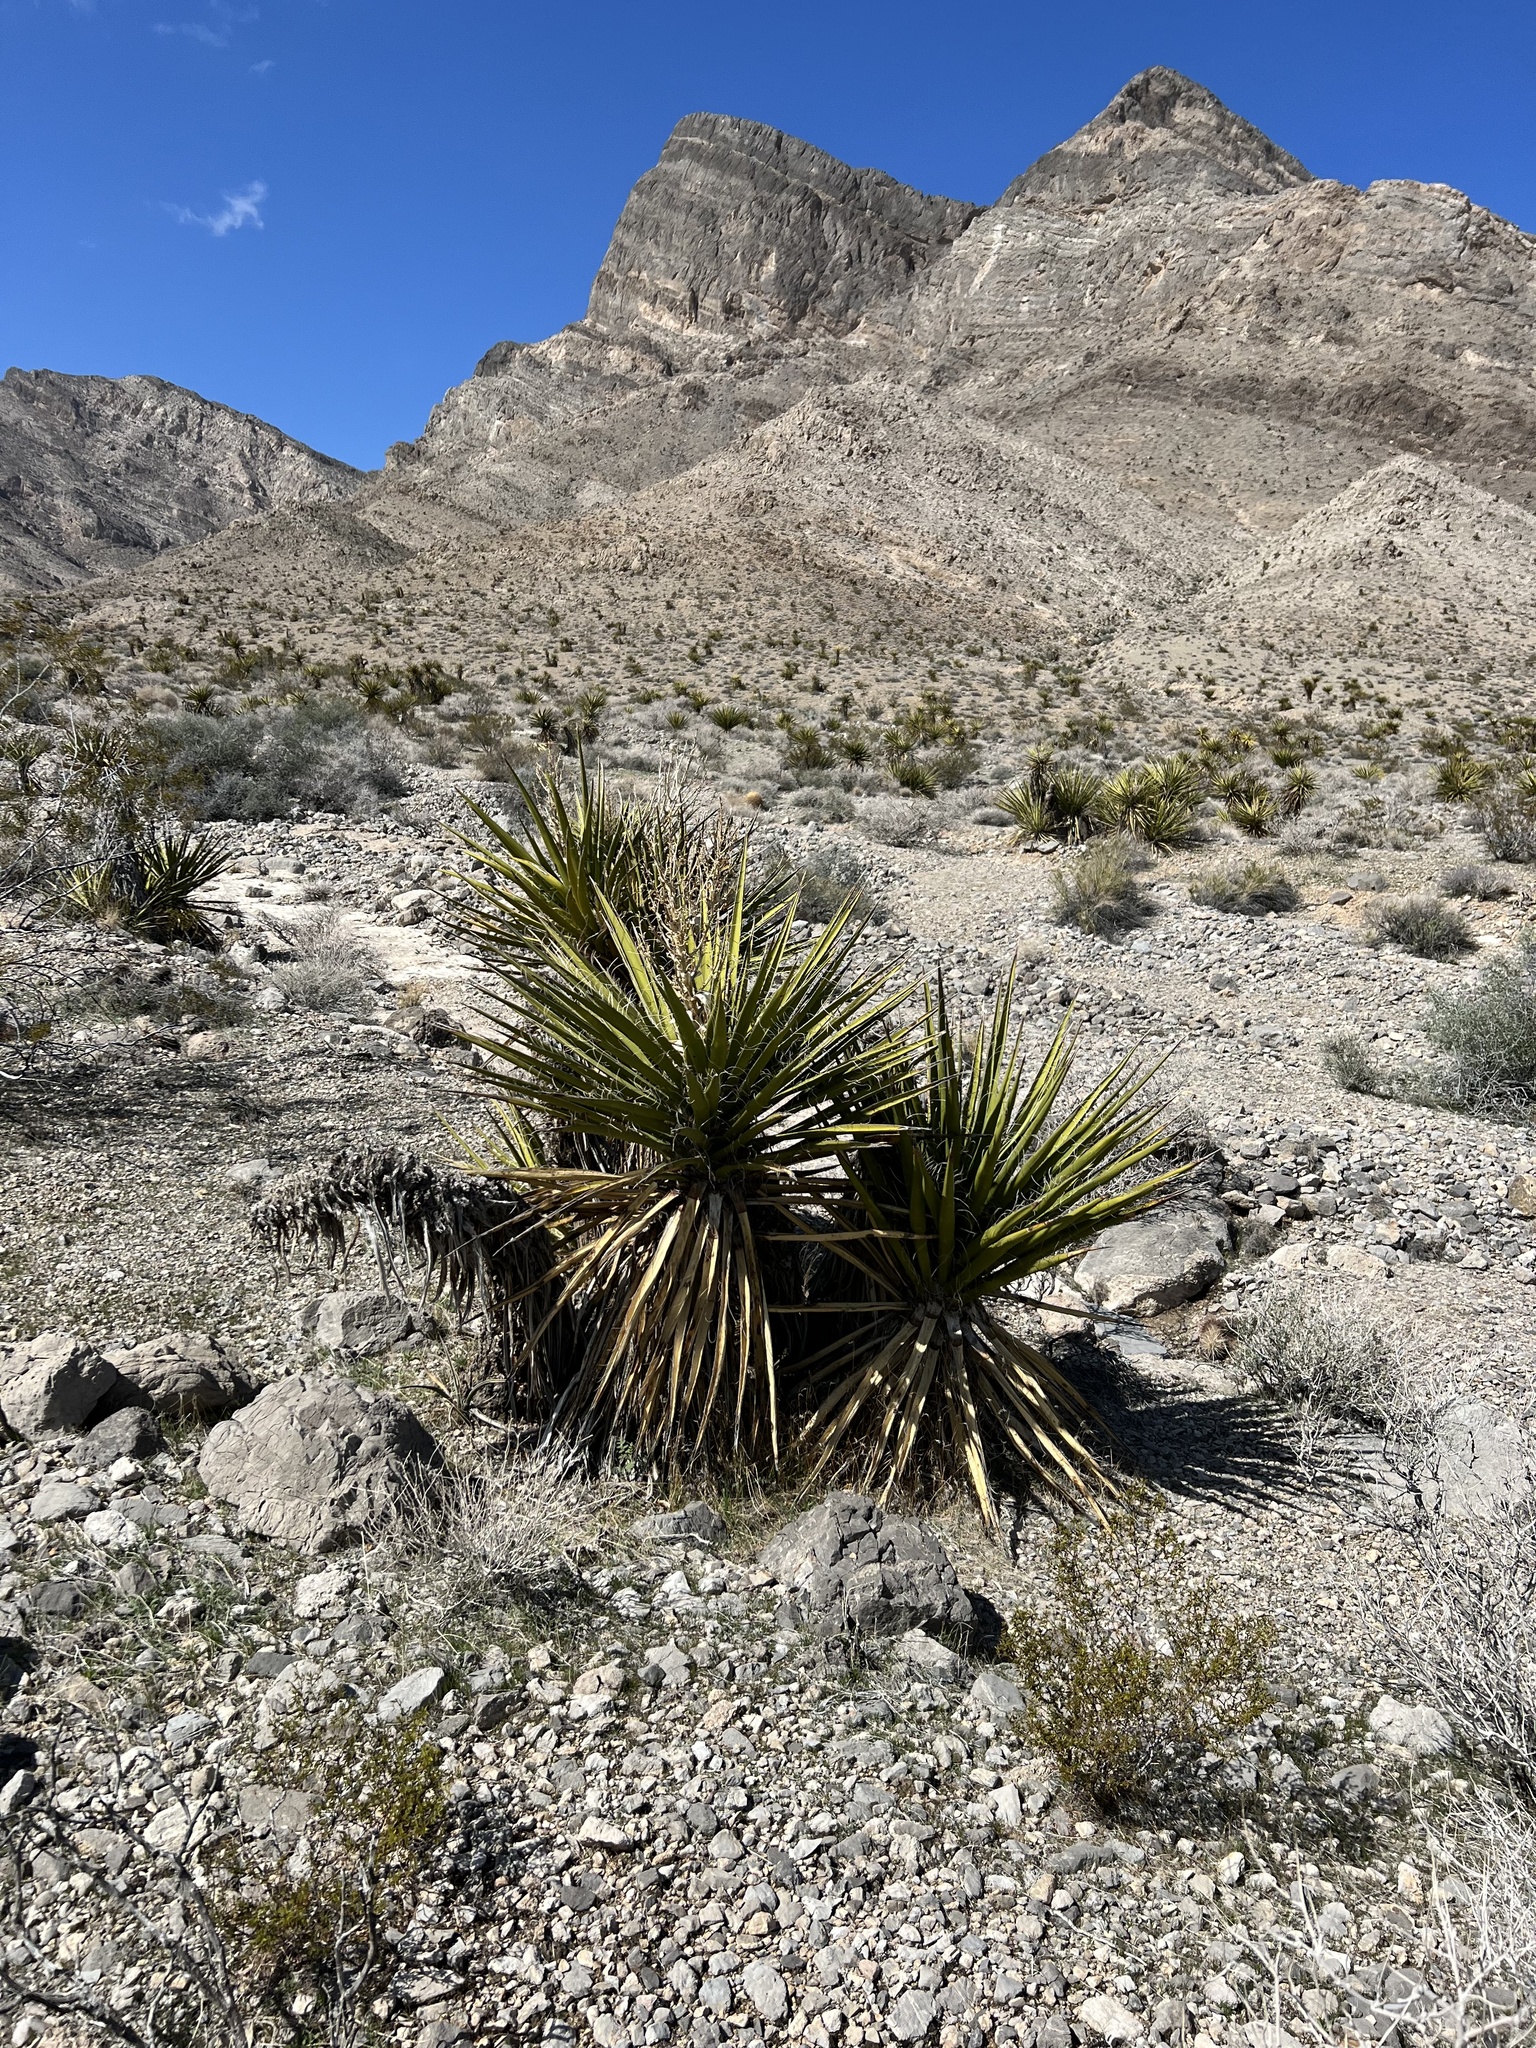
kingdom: Plantae
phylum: Tracheophyta
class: Liliopsida
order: Asparagales
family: Asparagaceae
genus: Yucca
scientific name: Yucca schidigera
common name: Mojave yucca
